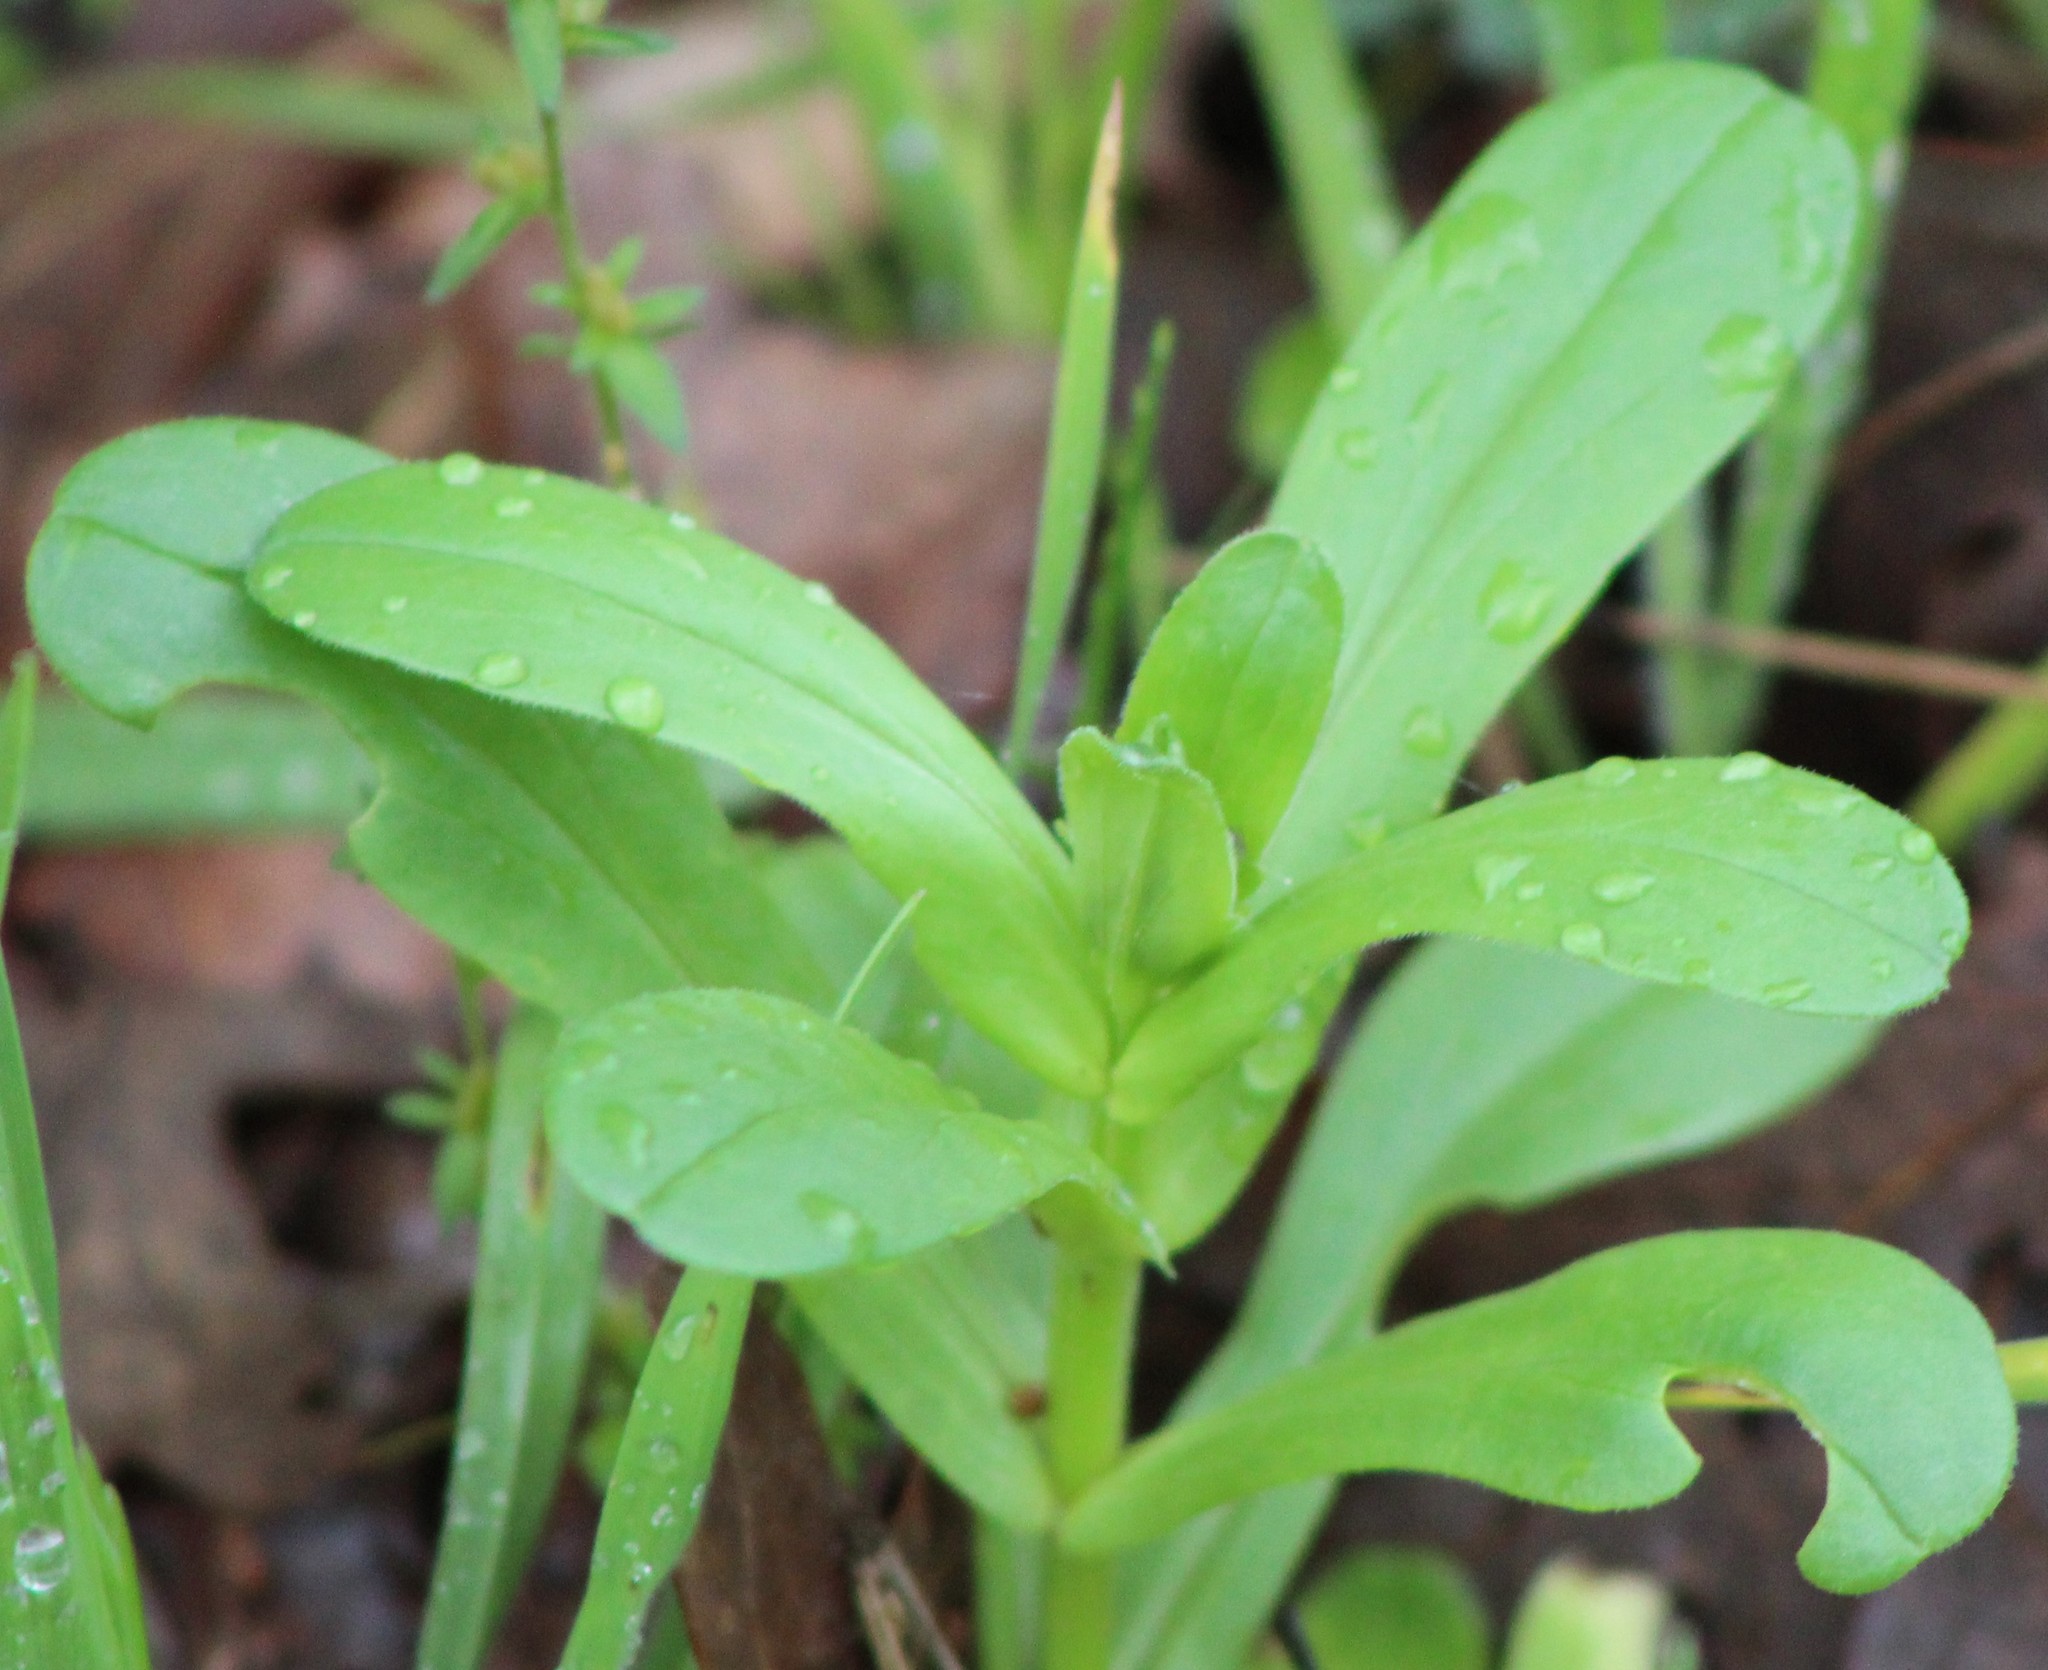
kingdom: Plantae
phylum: Tracheophyta
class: Magnoliopsida
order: Dipsacales
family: Caprifoliaceae
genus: Valerianella
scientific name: Valerianella radiata
